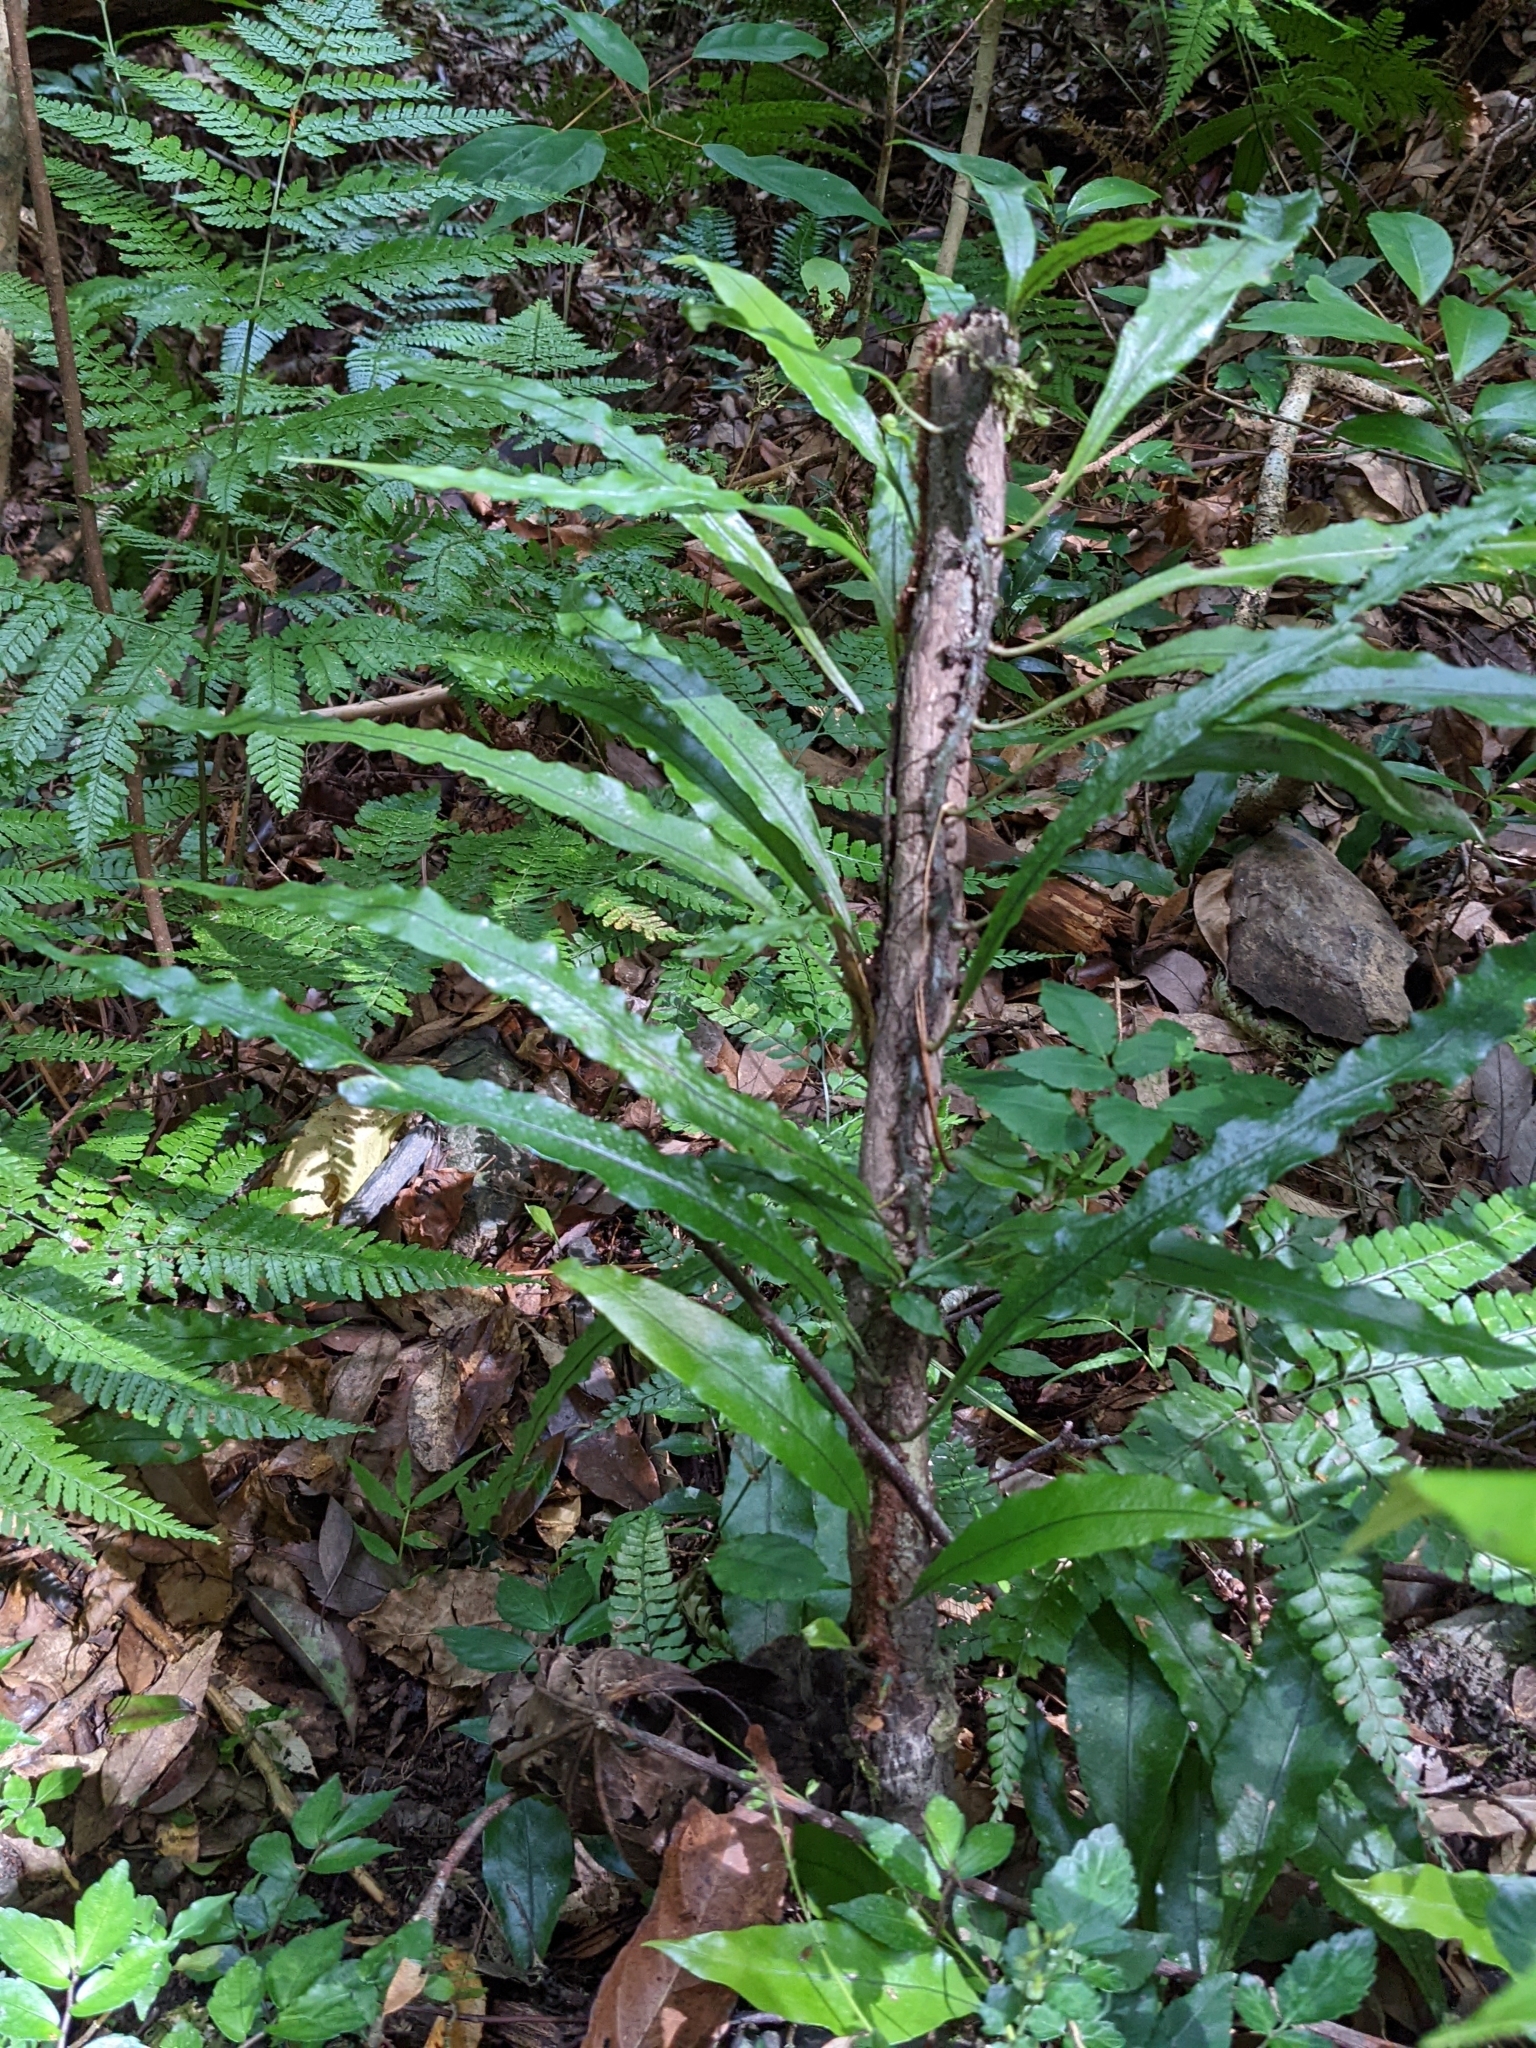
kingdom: Plantae
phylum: Tracheophyta
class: Polypodiopsida
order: Polypodiales
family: Polypodiaceae
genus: Lepisorus
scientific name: Lepisorus superficialis
